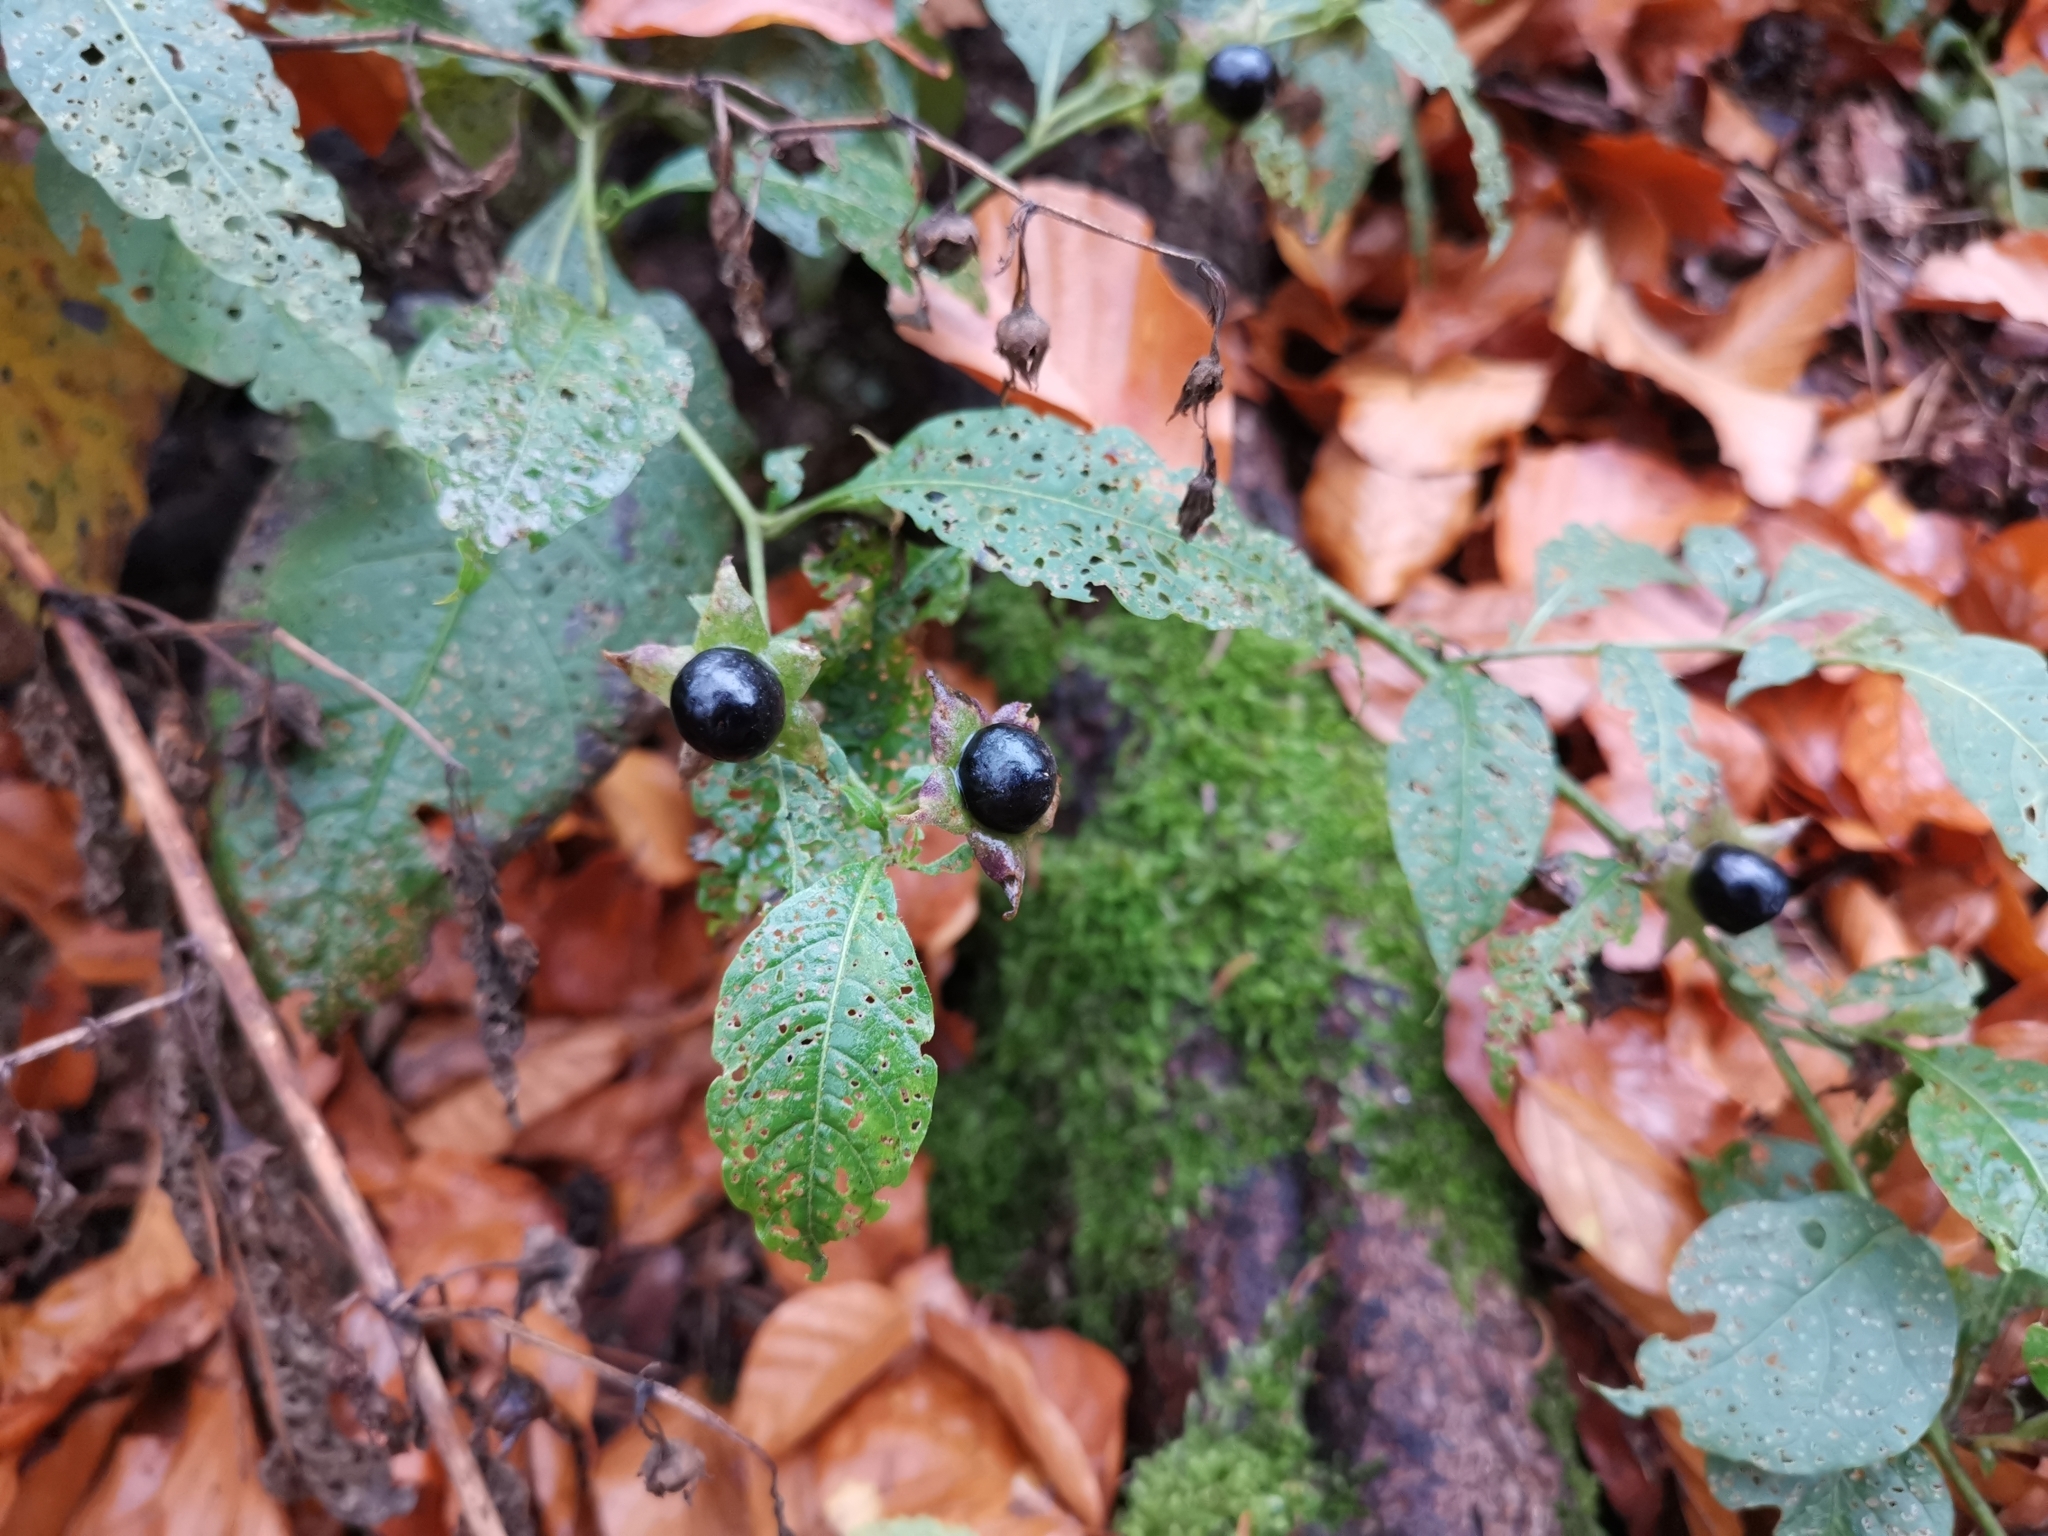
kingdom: Plantae
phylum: Tracheophyta
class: Magnoliopsida
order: Solanales
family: Solanaceae
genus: Atropa
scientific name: Atropa belladonna
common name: Deadly nightshade
